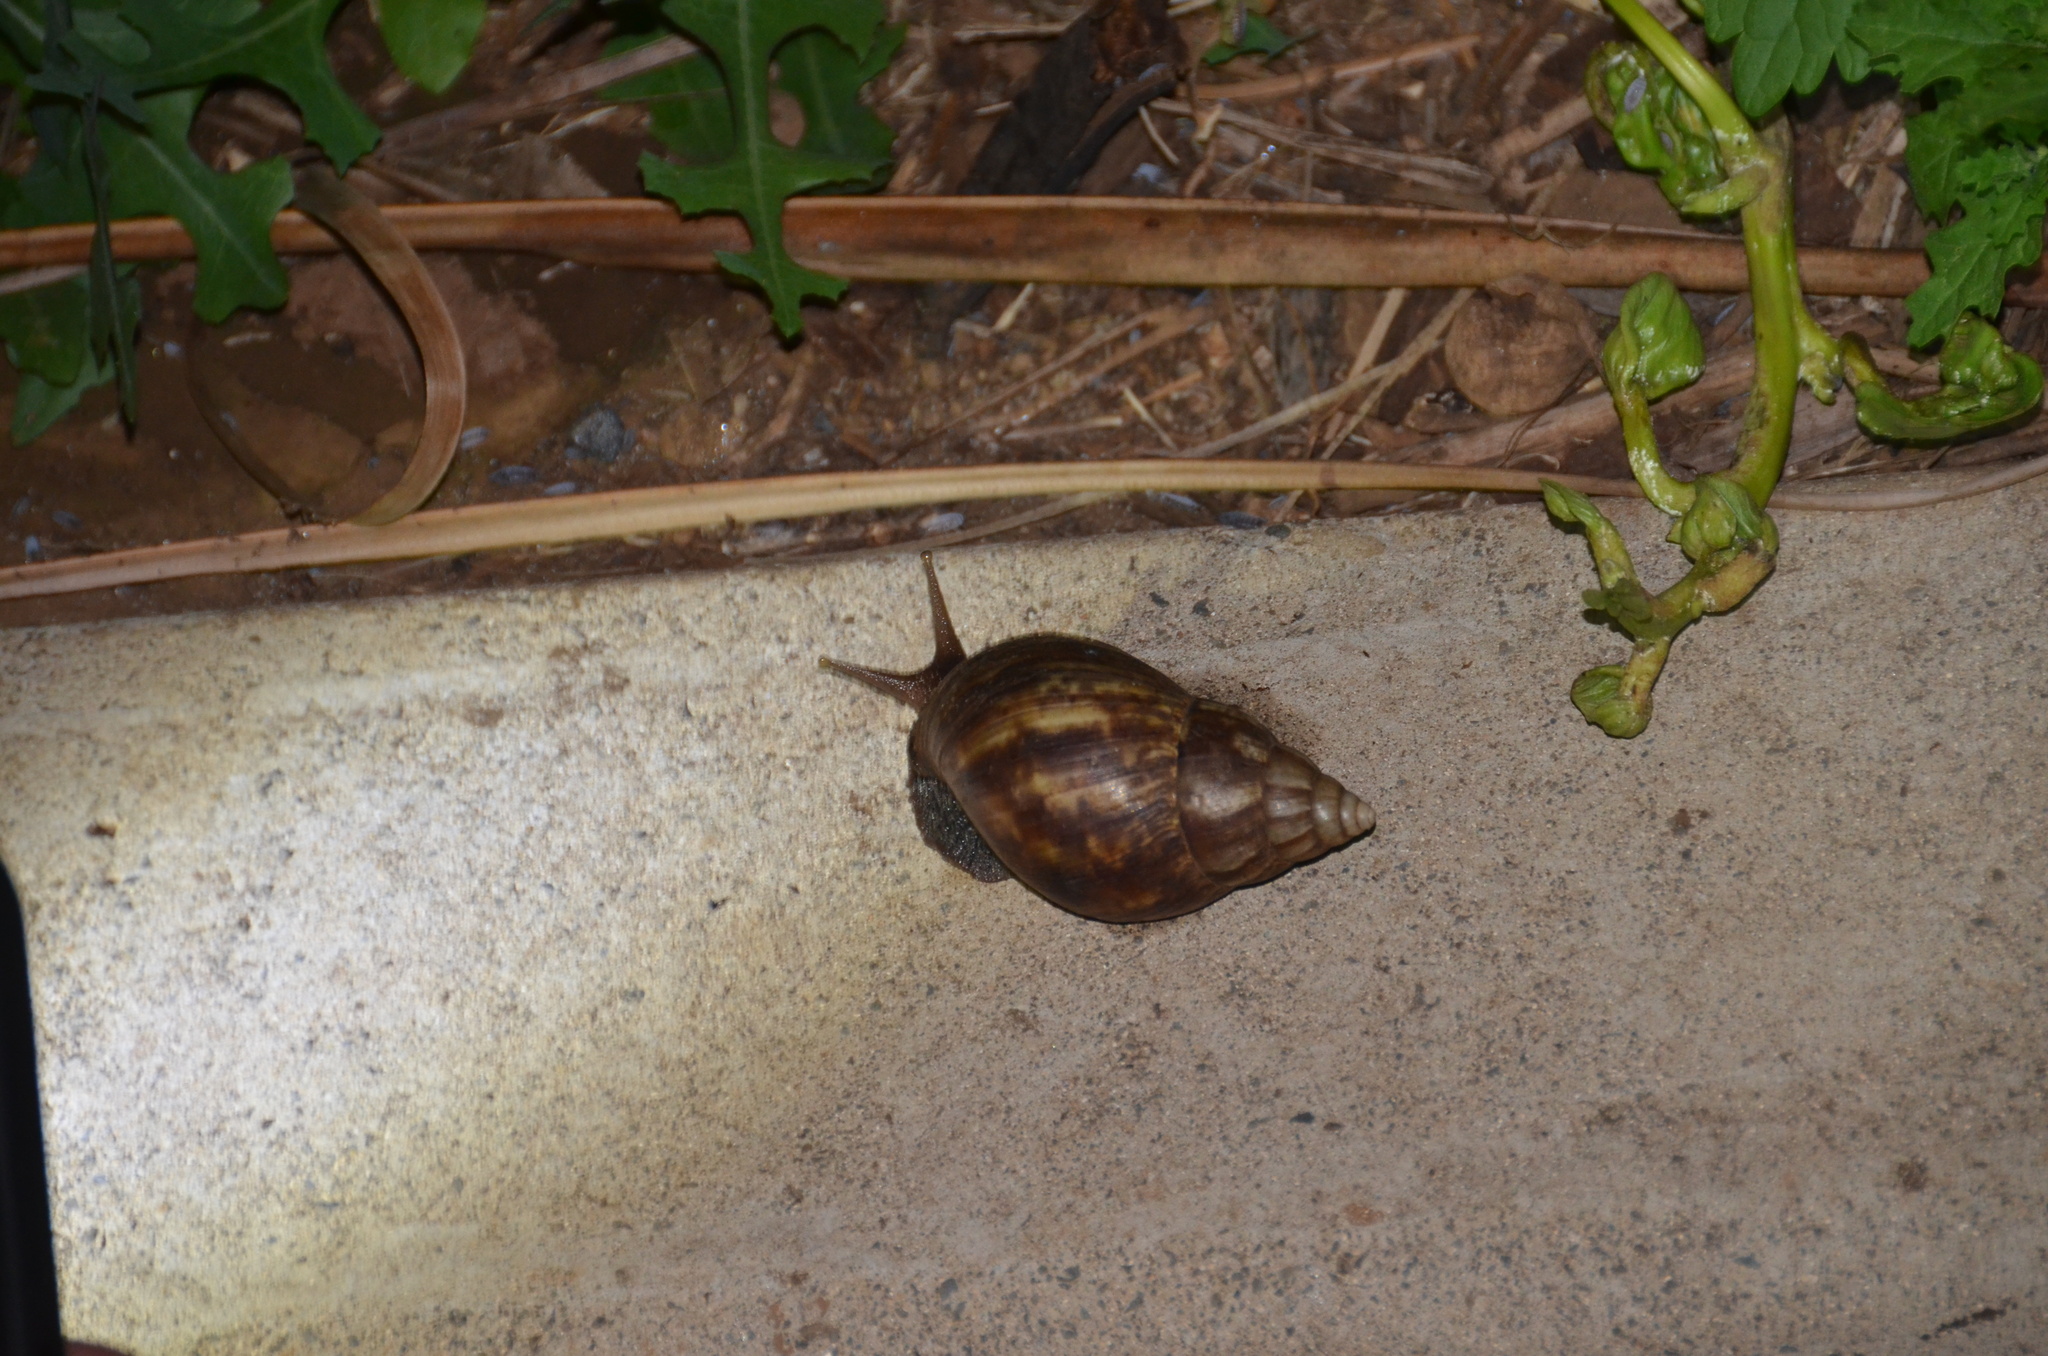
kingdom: Animalia
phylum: Mollusca
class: Gastropoda
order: Stylommatophora
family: Achatinidae
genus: Lissachatina
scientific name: Lissachatina fulica
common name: Giant african snail
